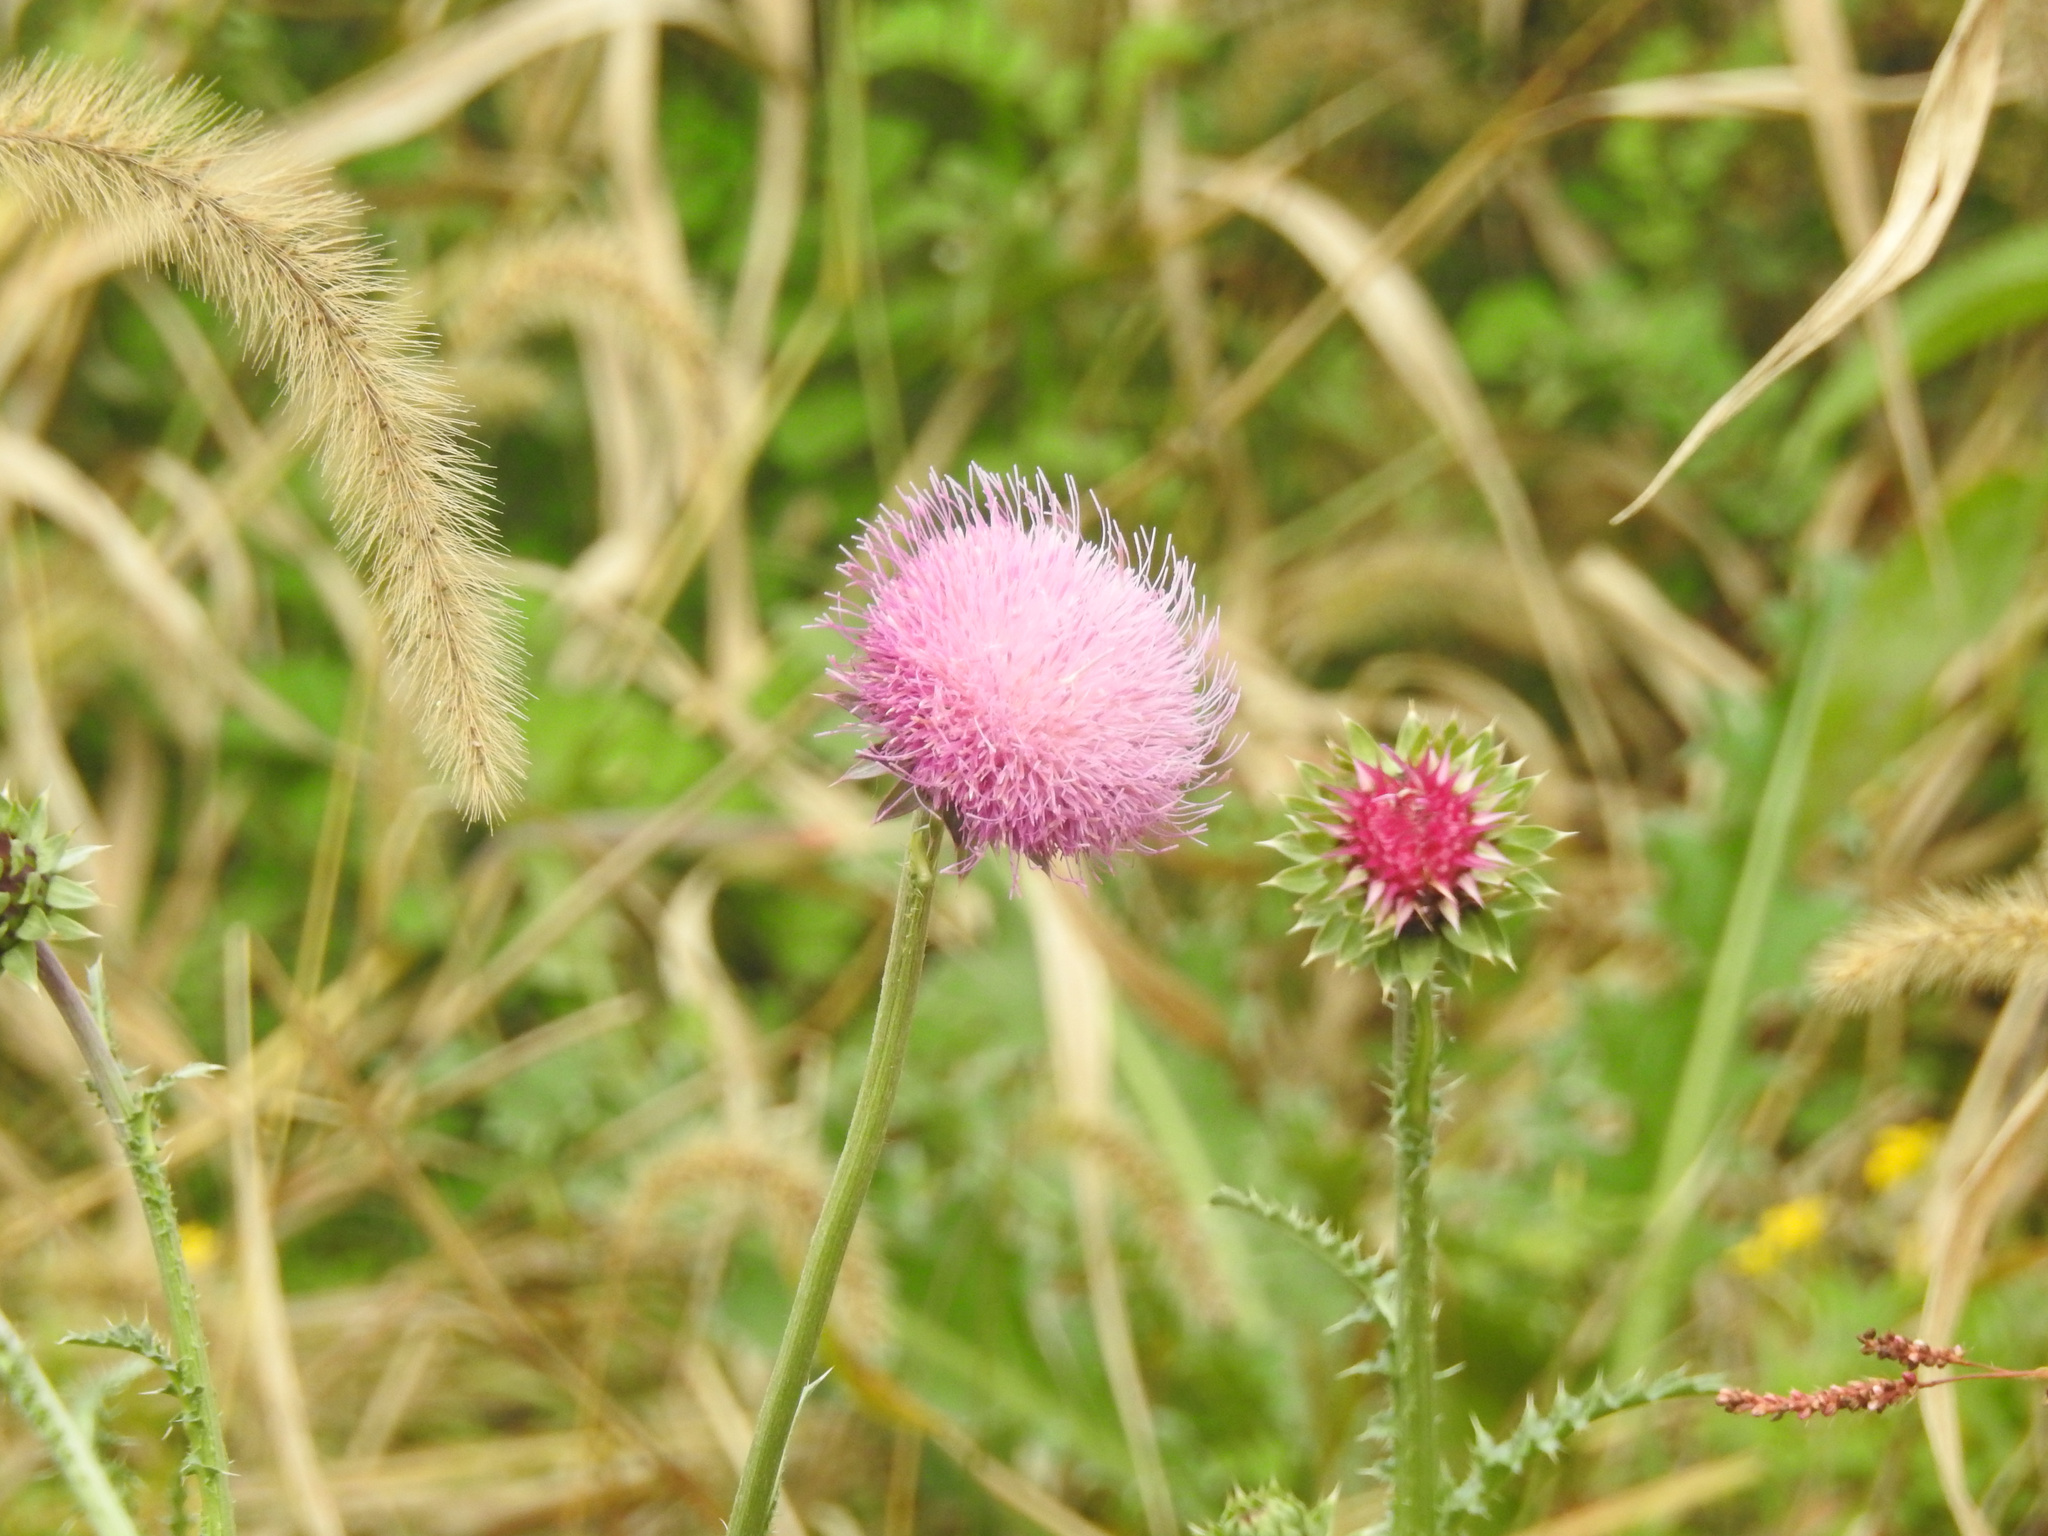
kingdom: Plantae
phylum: Tracheophyta
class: Magnoliopsida
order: Asterales
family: Asteraceae
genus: Carduus
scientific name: Carduus nutans
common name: Musk thistle
